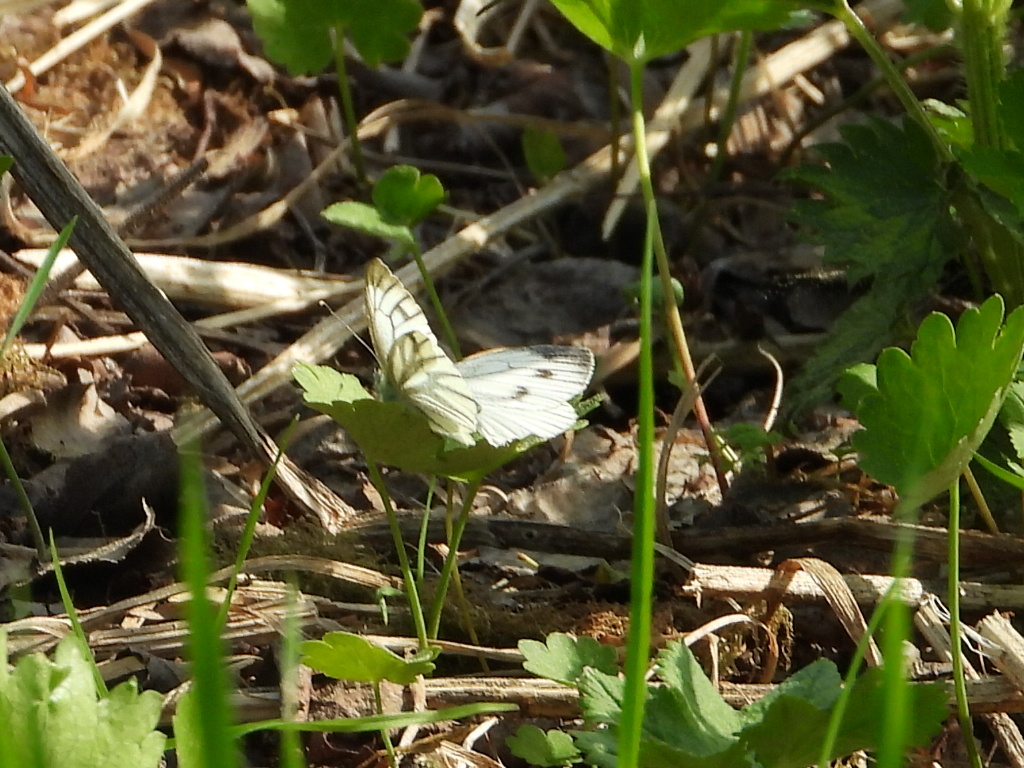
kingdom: Animalia
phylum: Arthropoda
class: Insecta
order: Lepidoptera
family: Pieridae
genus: Pieris
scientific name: Pieris napi
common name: Green-veined white
